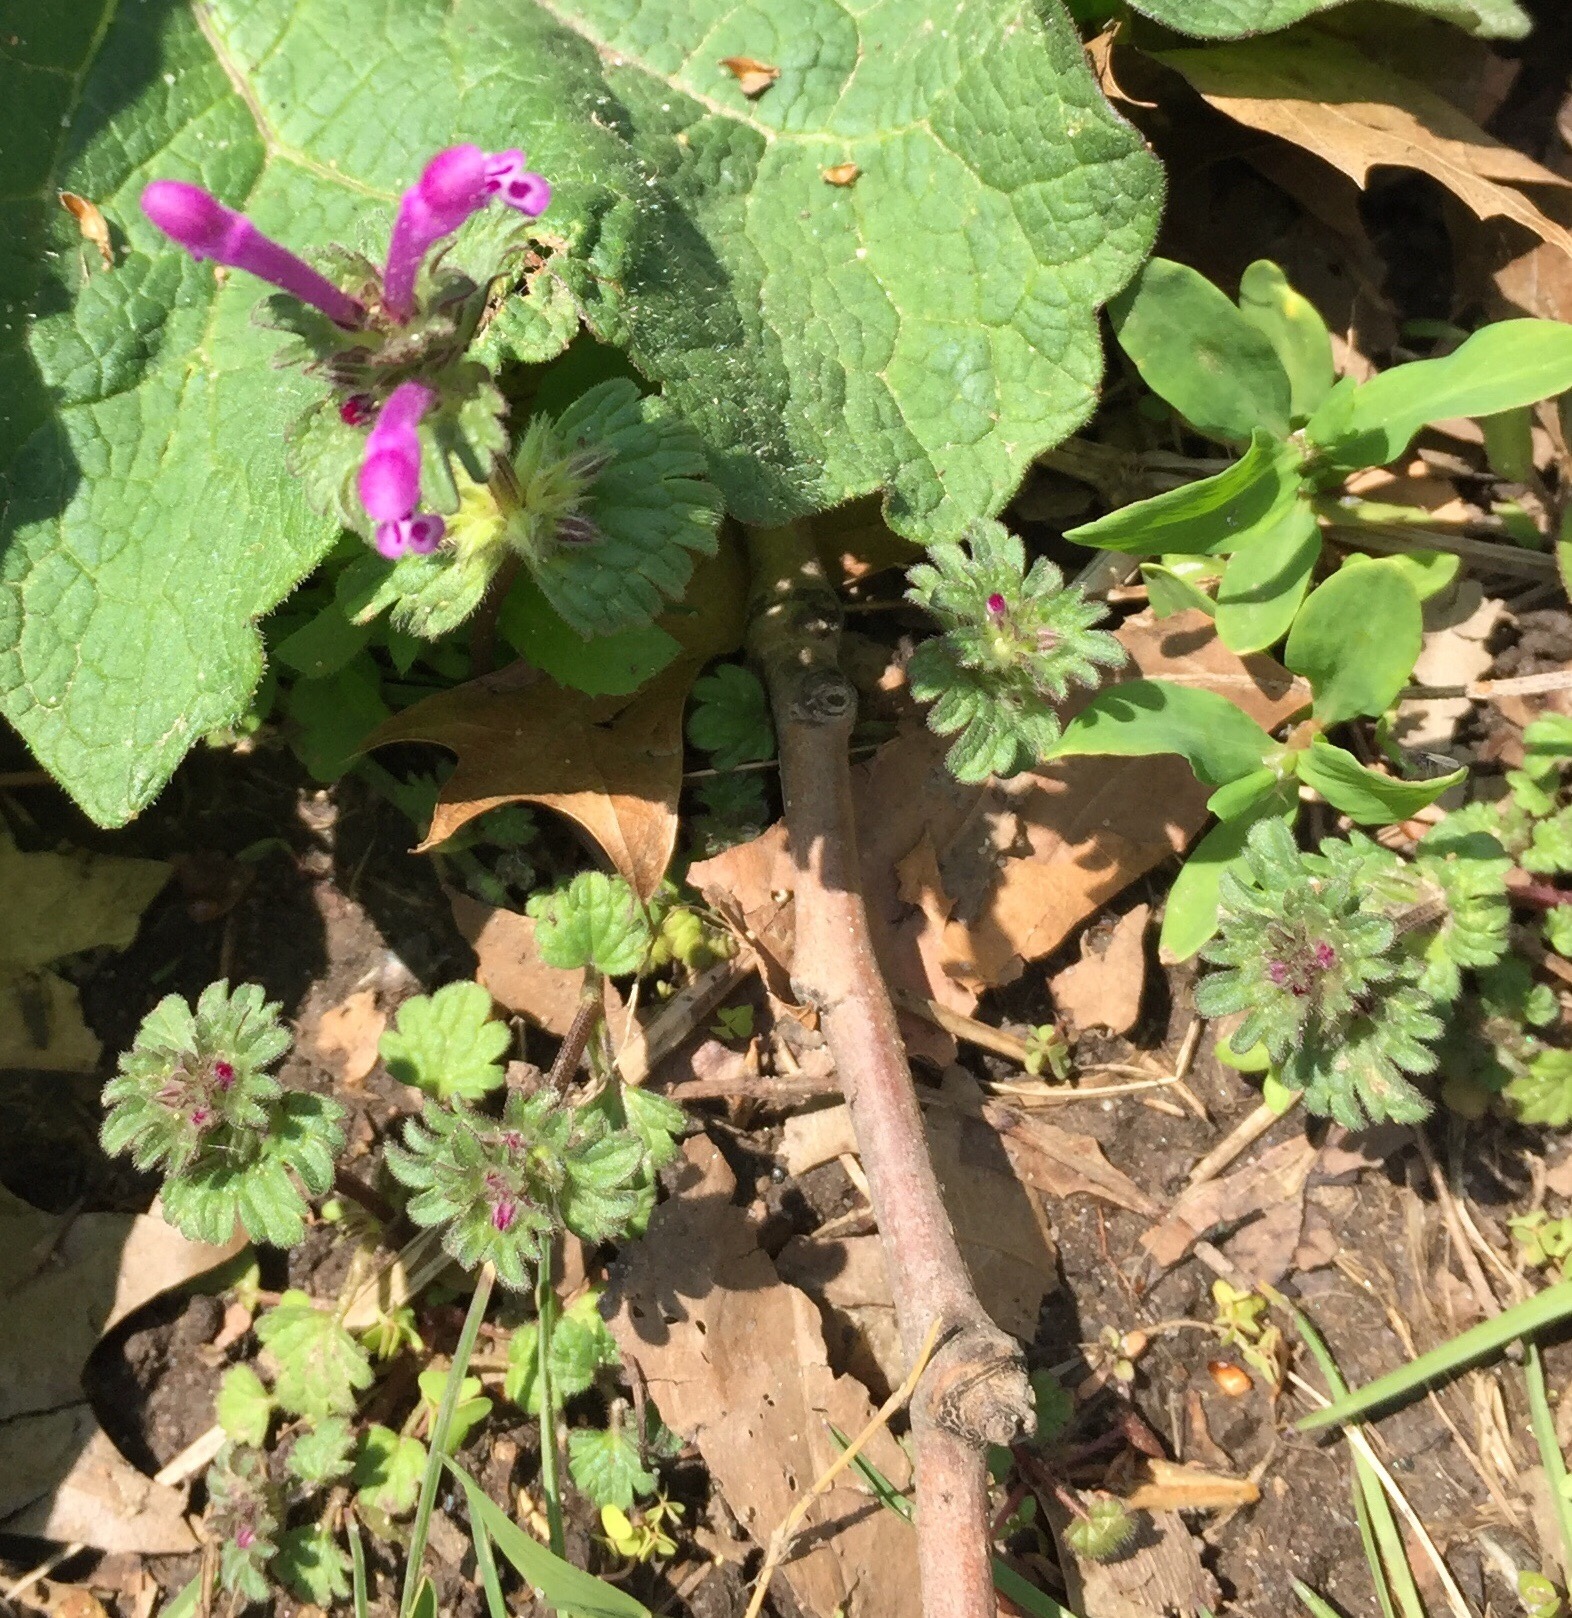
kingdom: Plantae
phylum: Tracheophyta
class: Magnoliopsida
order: Lamiales
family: Lamiaceae
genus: Lamium
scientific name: Lamium amplexicaule
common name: Henbit dead-nettle
